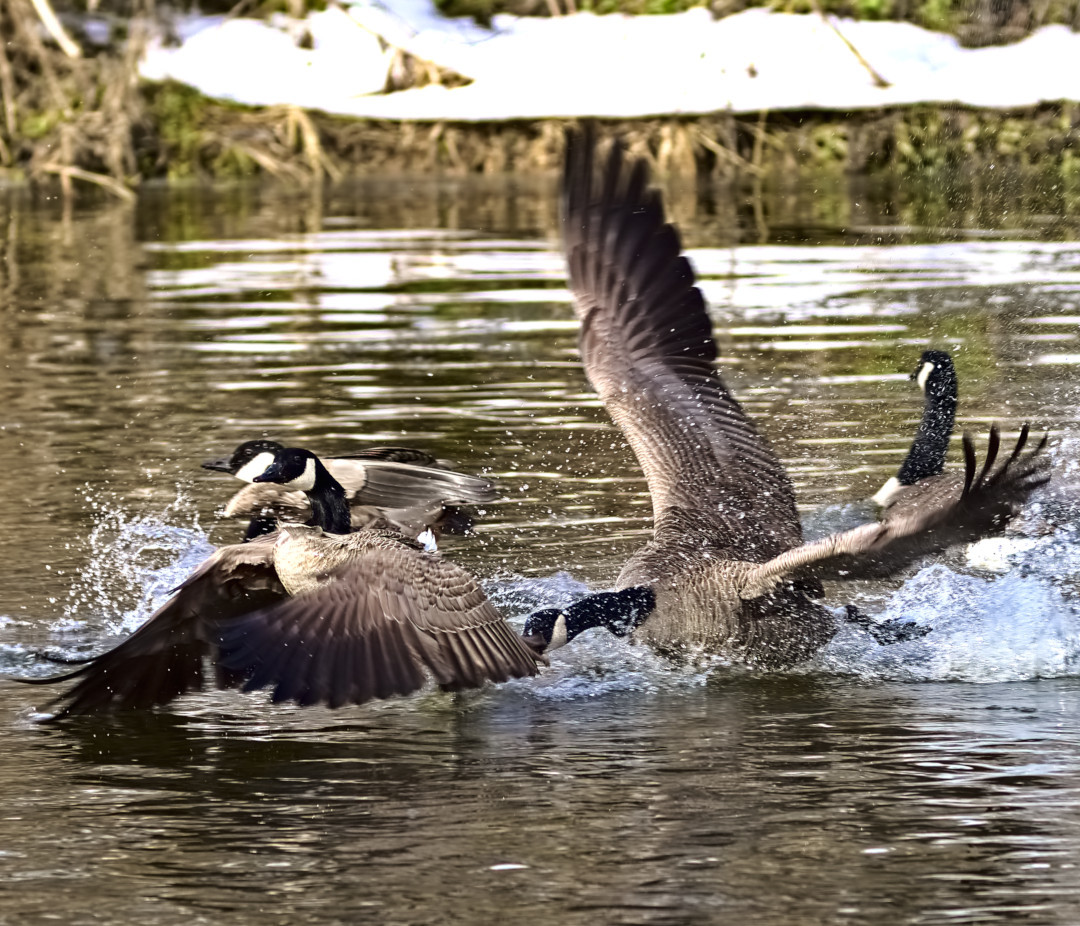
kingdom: Animalia
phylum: Chordata
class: Aves
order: Anseriformes
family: Anatidae
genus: Branta
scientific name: Branta canadensis
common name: Canada goose
